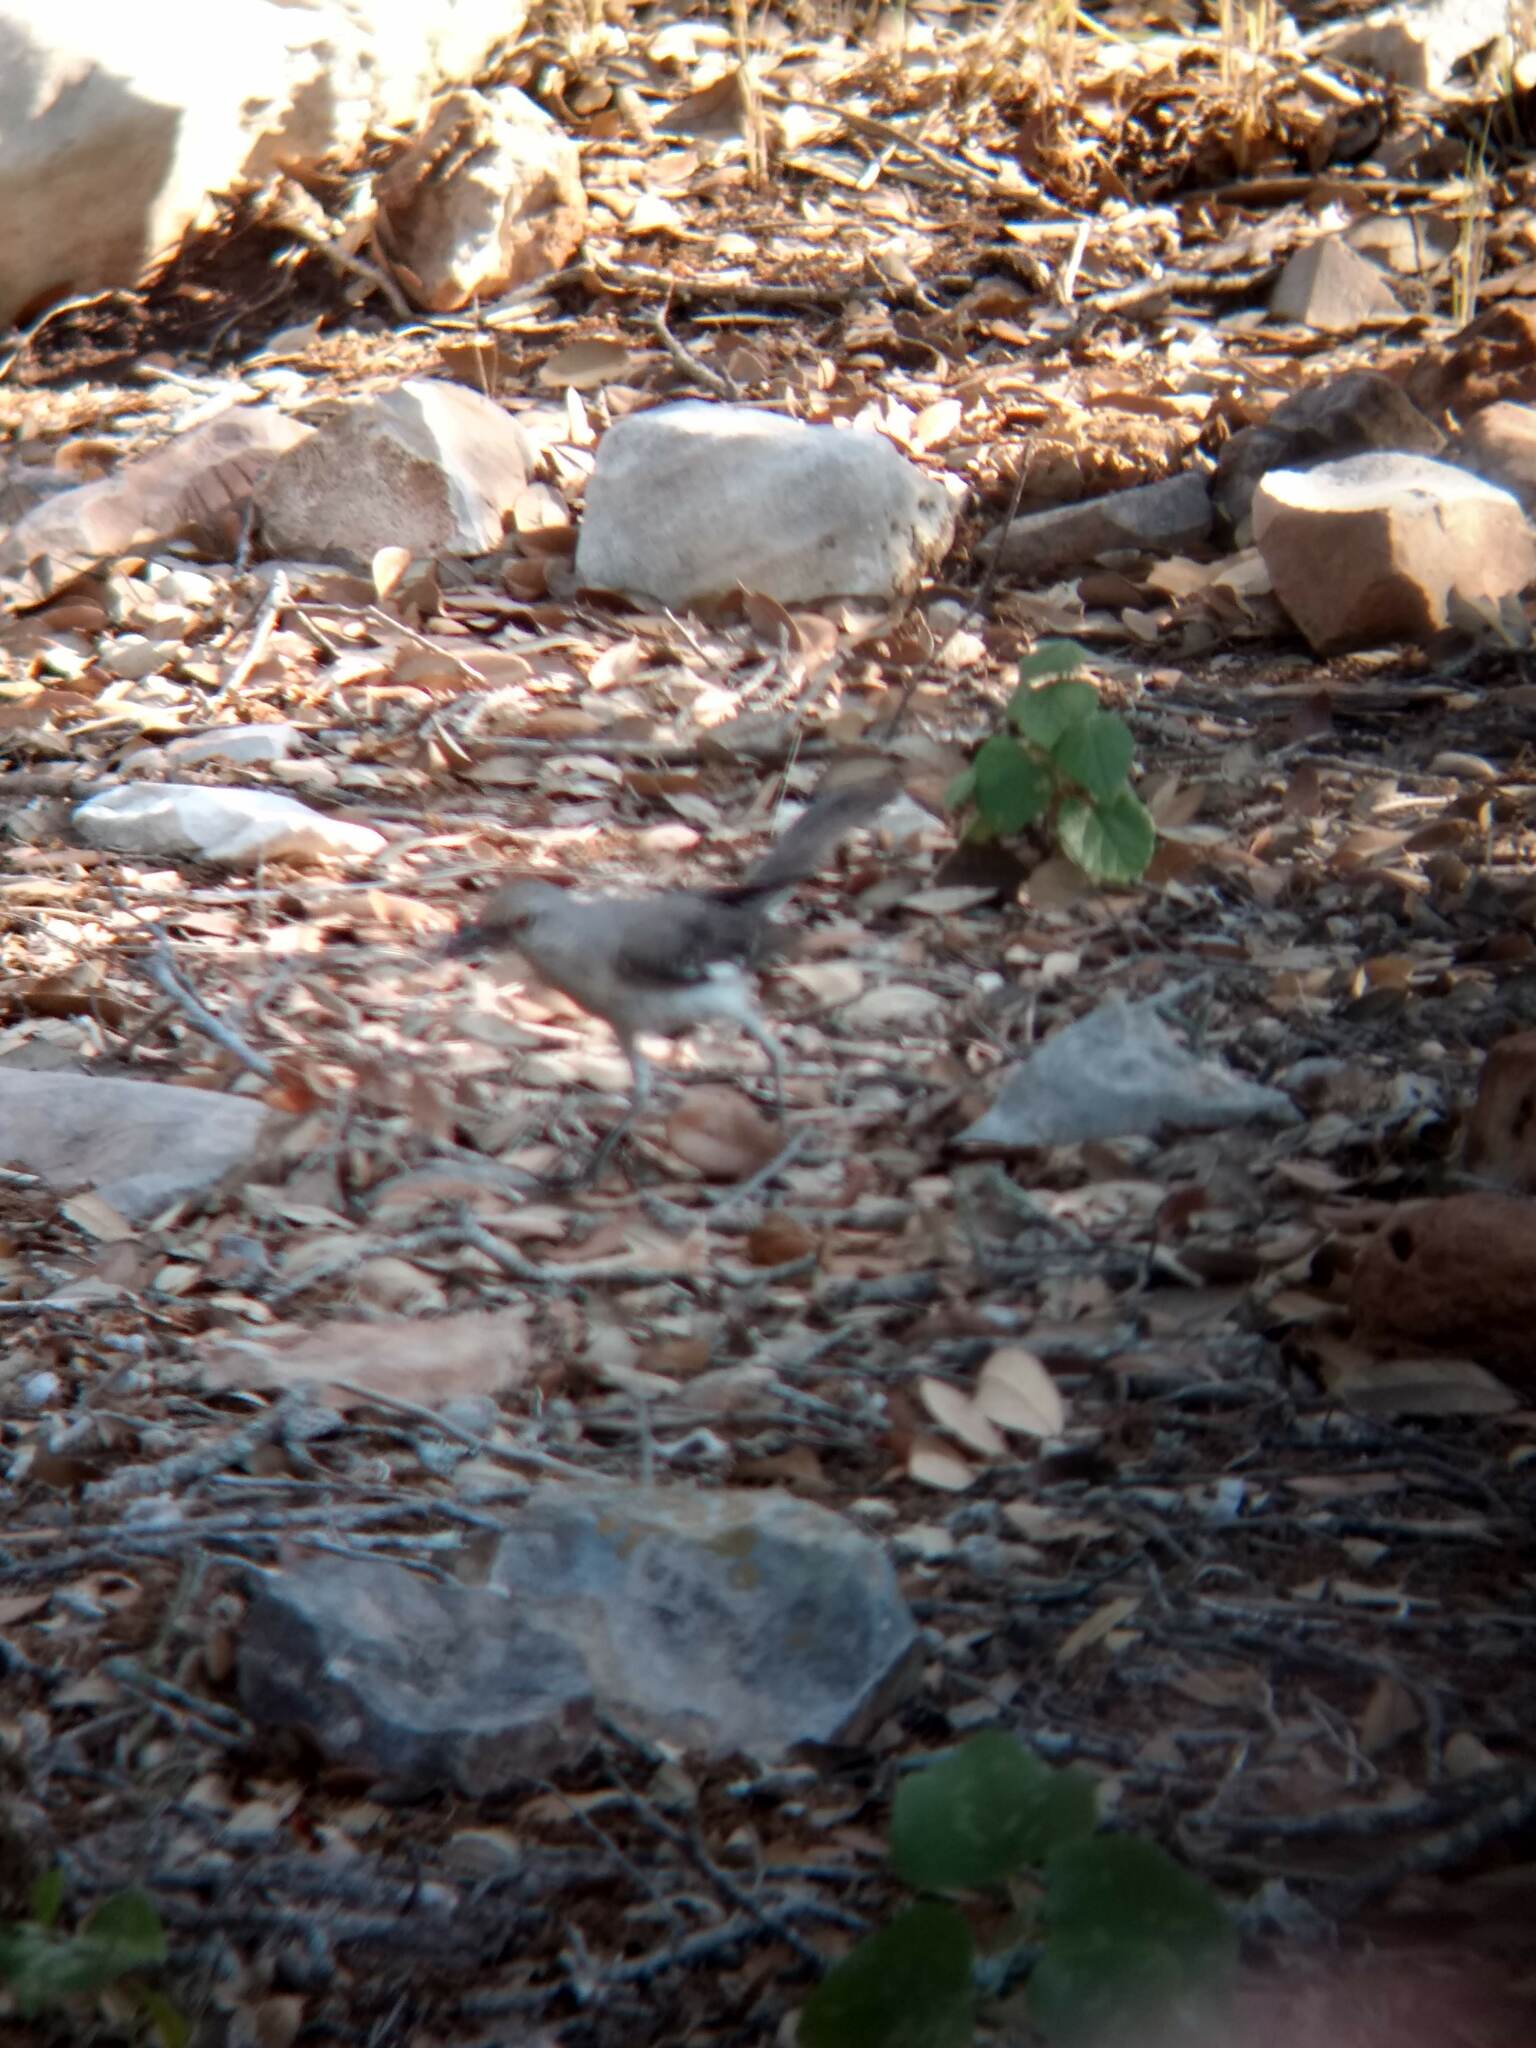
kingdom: Animalia
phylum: Chordata
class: Aves
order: Passeriformes
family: Mimidae
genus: Mimus
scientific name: Mimus polyglottos
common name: Northern mockingbird
